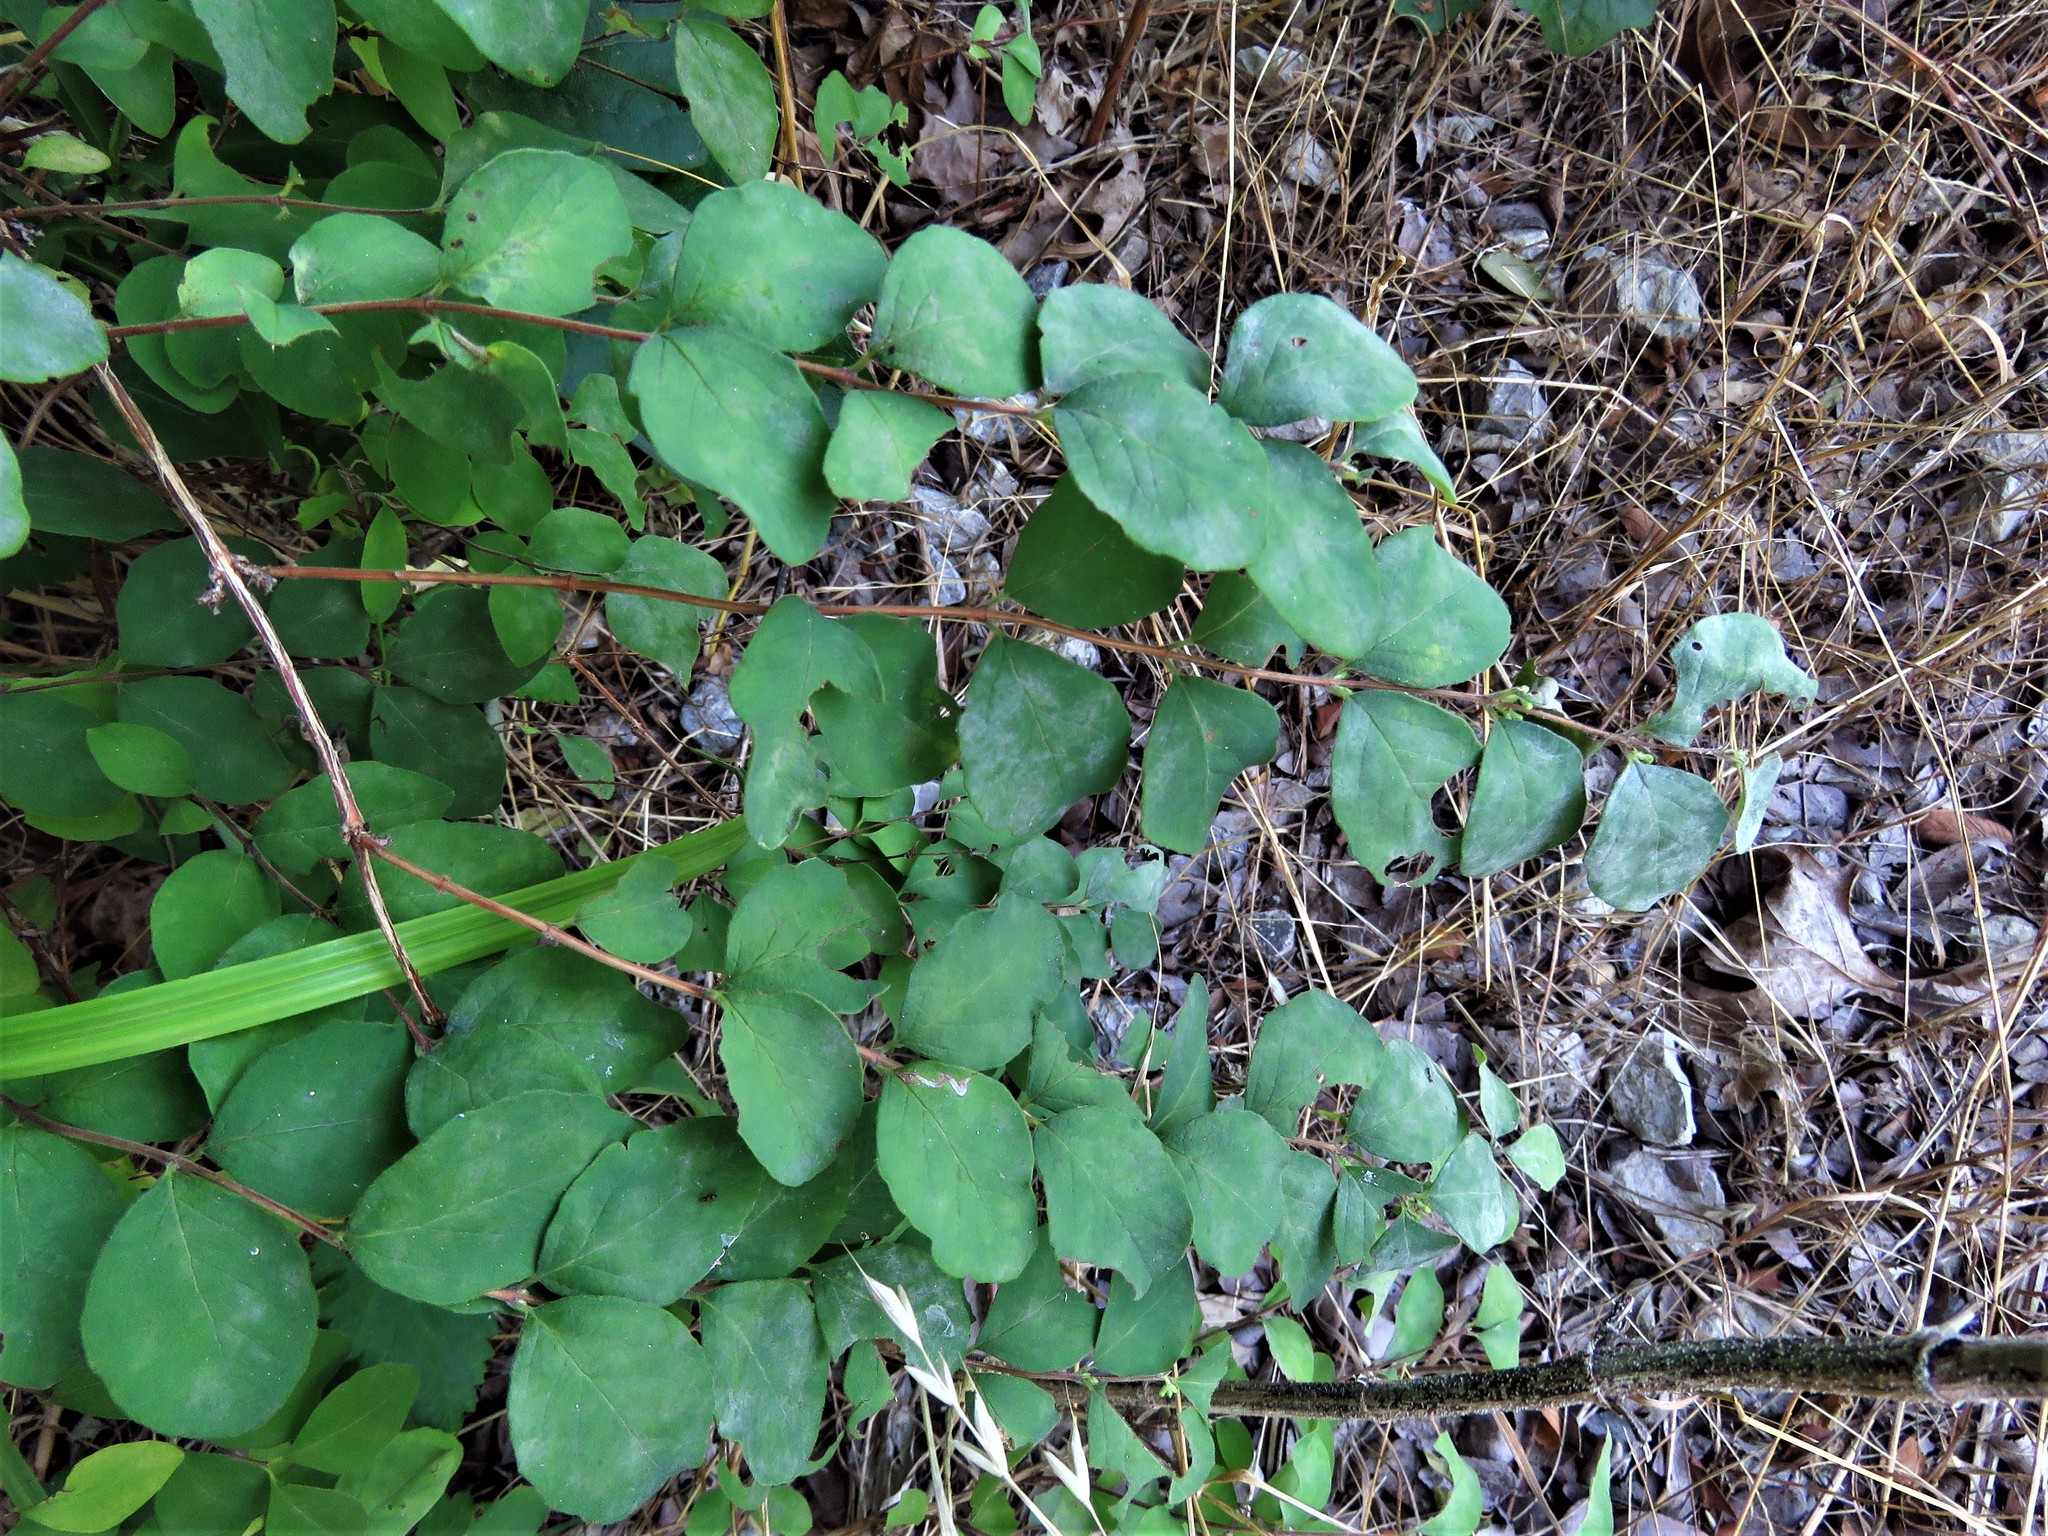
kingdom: Plantae
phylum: Tracheophyta
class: Magnoliopsida
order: Dipsacales
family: Caprifoliaceae
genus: Symphoricarpos
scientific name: Symphoricarpos orbiculatus
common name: Coralberry
